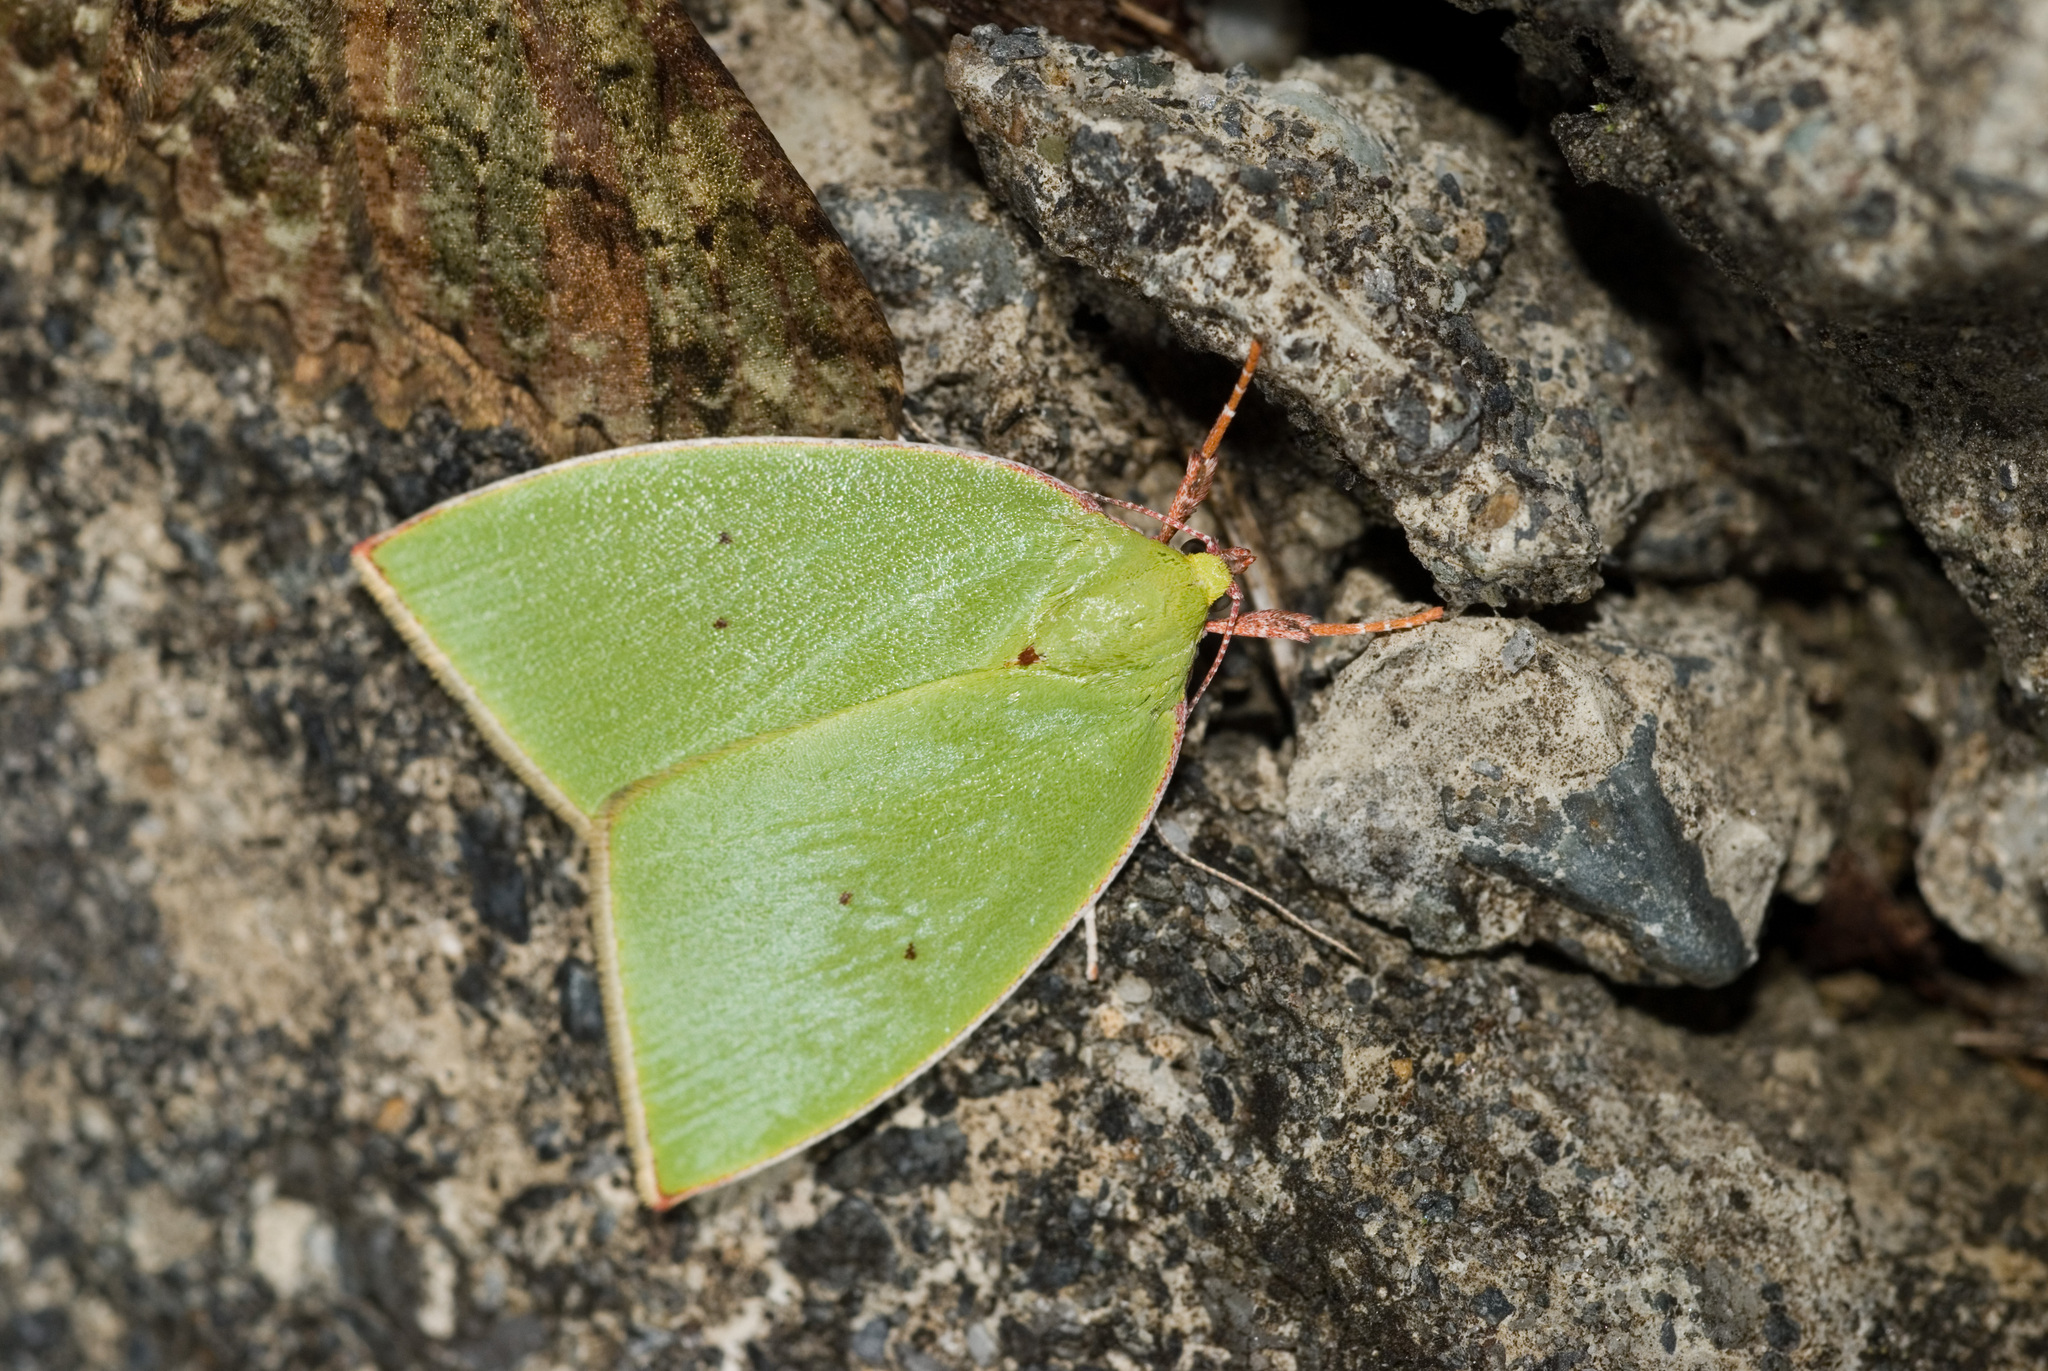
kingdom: Animalia
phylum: Arthropoda
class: Insecta
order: Lepidoptera
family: Nolidae
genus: Tyana
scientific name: Tyana falcata
